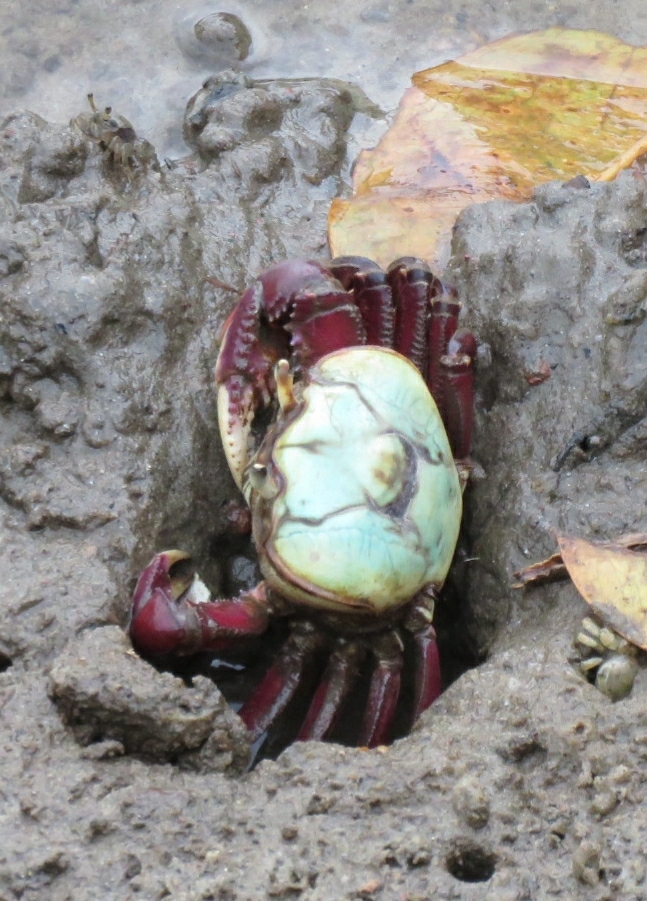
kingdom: Animalia
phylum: Arthropoda
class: Malacostraca
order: Decapoda
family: Ocypodidae
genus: Ucides
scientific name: Ucides cordatus
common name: Swamp ghost crab
